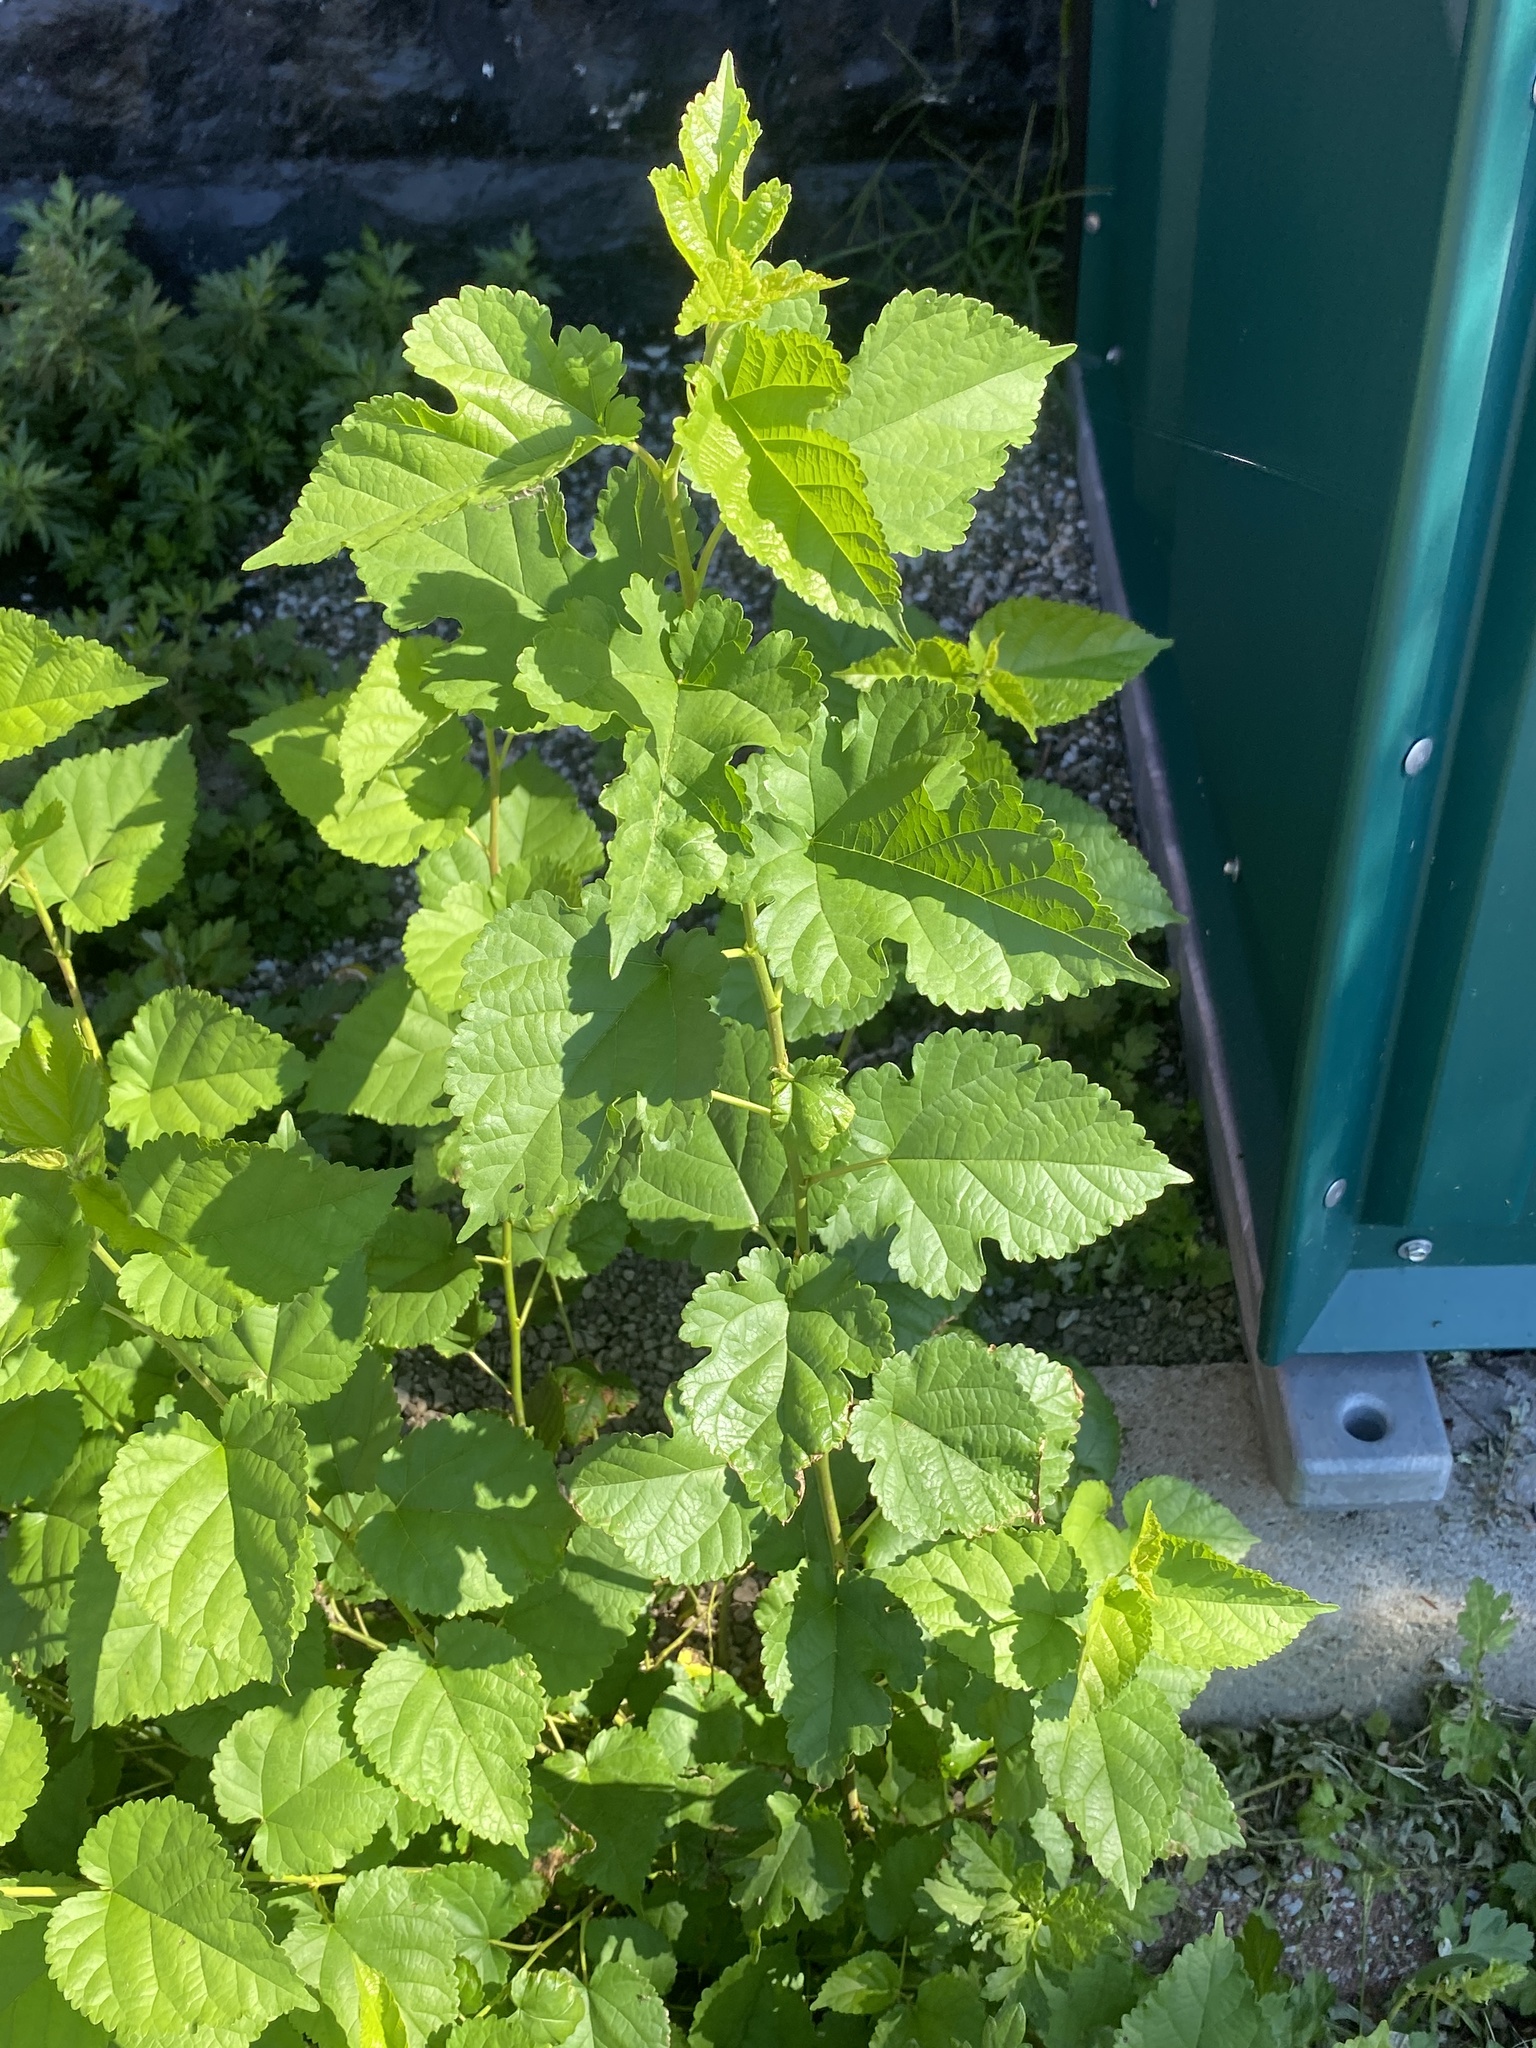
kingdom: Plantae
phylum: Tracheophyta
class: Magnoliopsida
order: Rosales
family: Moraceae
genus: Morus
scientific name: Morus alba
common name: White mulberry
